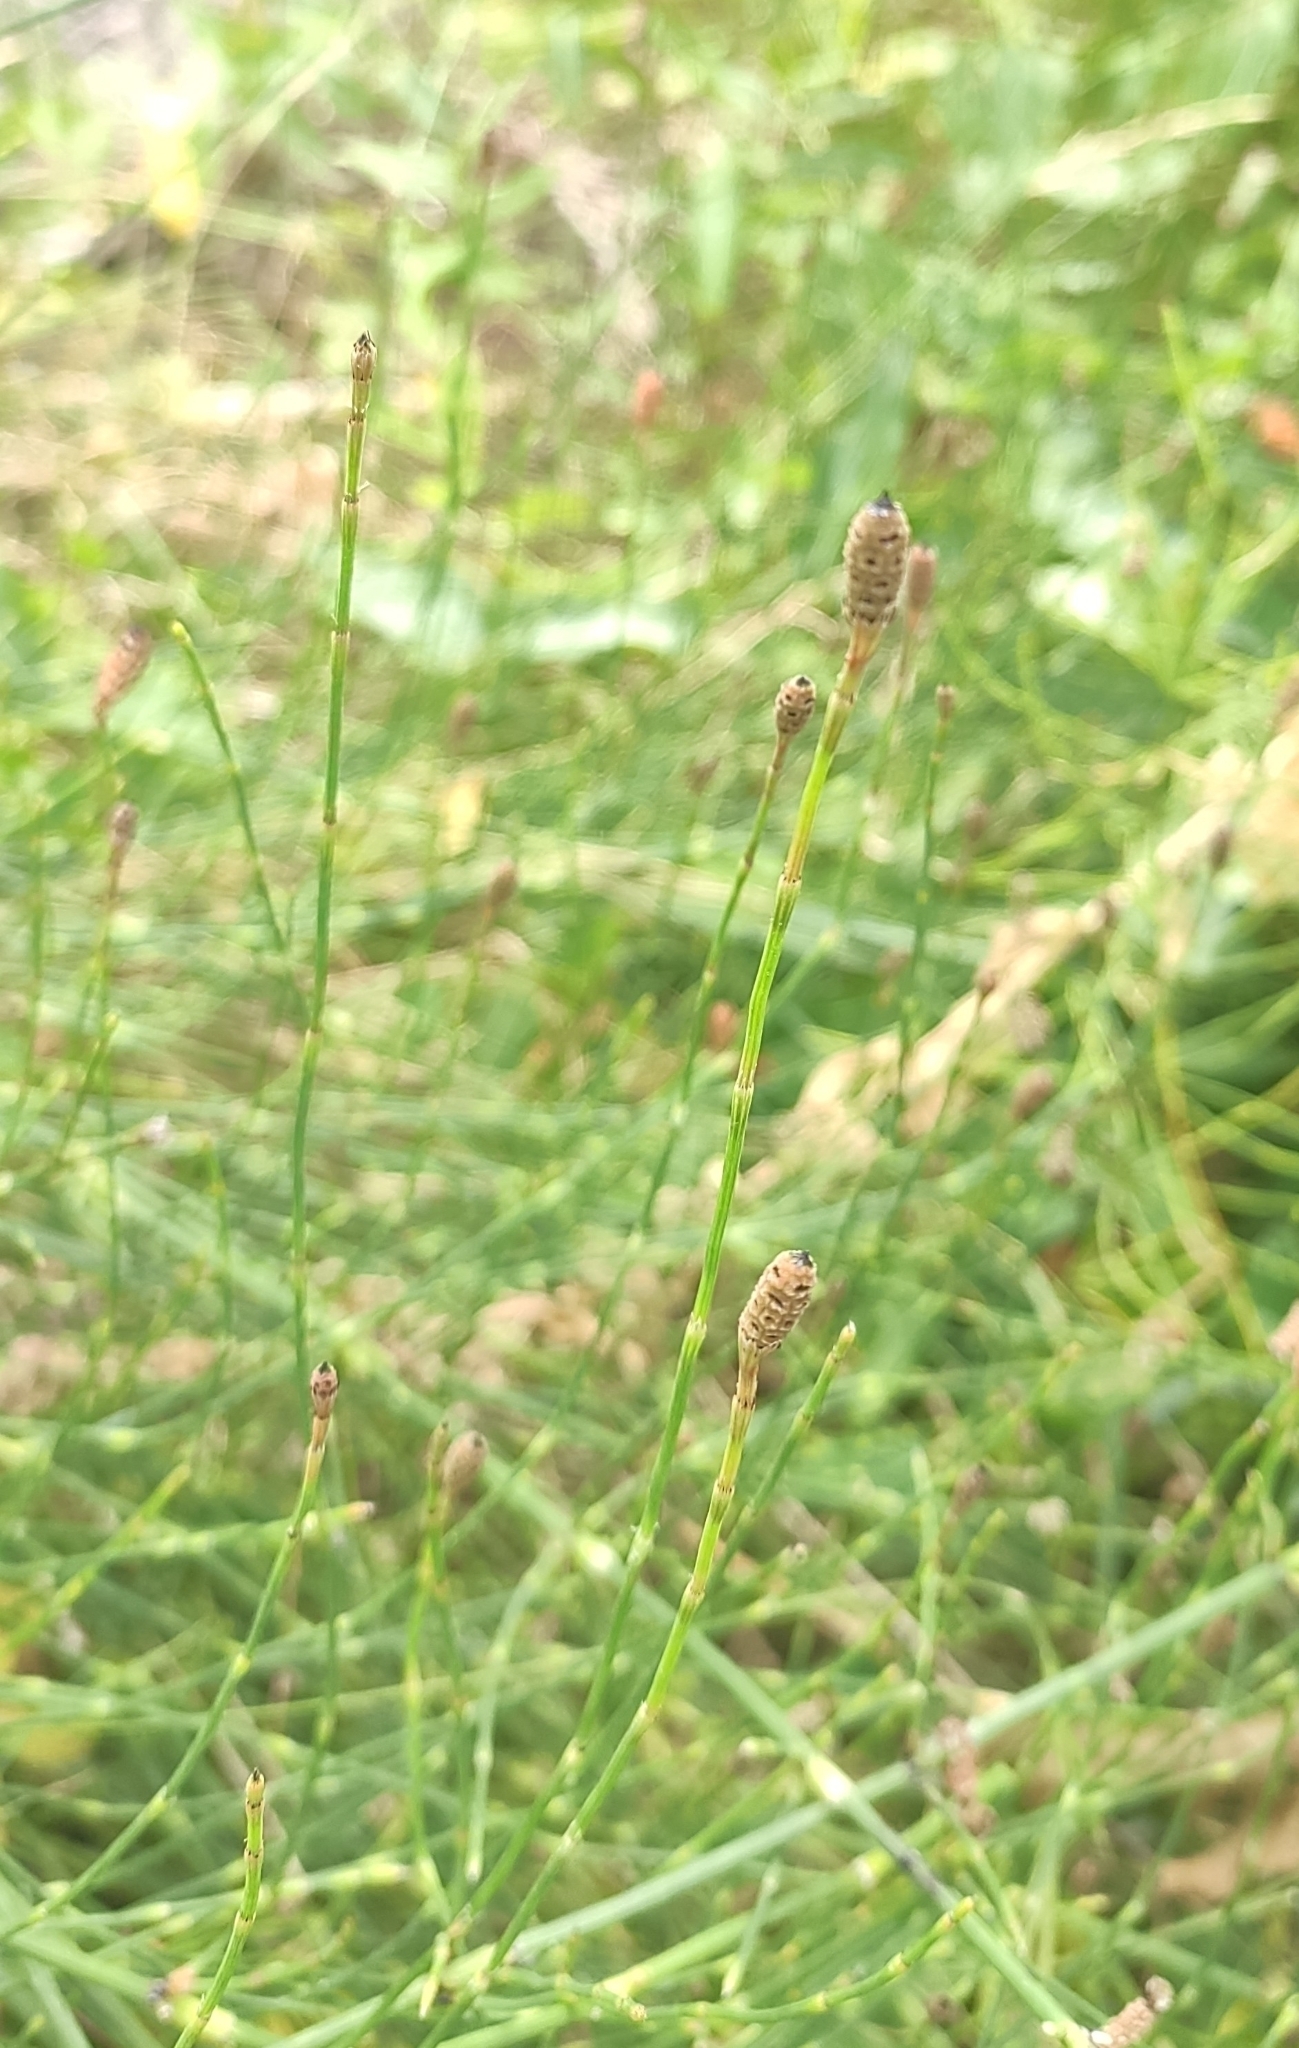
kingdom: Plantae
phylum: Tracheophyta
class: Polypodiopsida
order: Equisetales
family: Equisetaceae
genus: Equisetum
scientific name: Equisetum ramosissimum
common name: Branched horsetail
